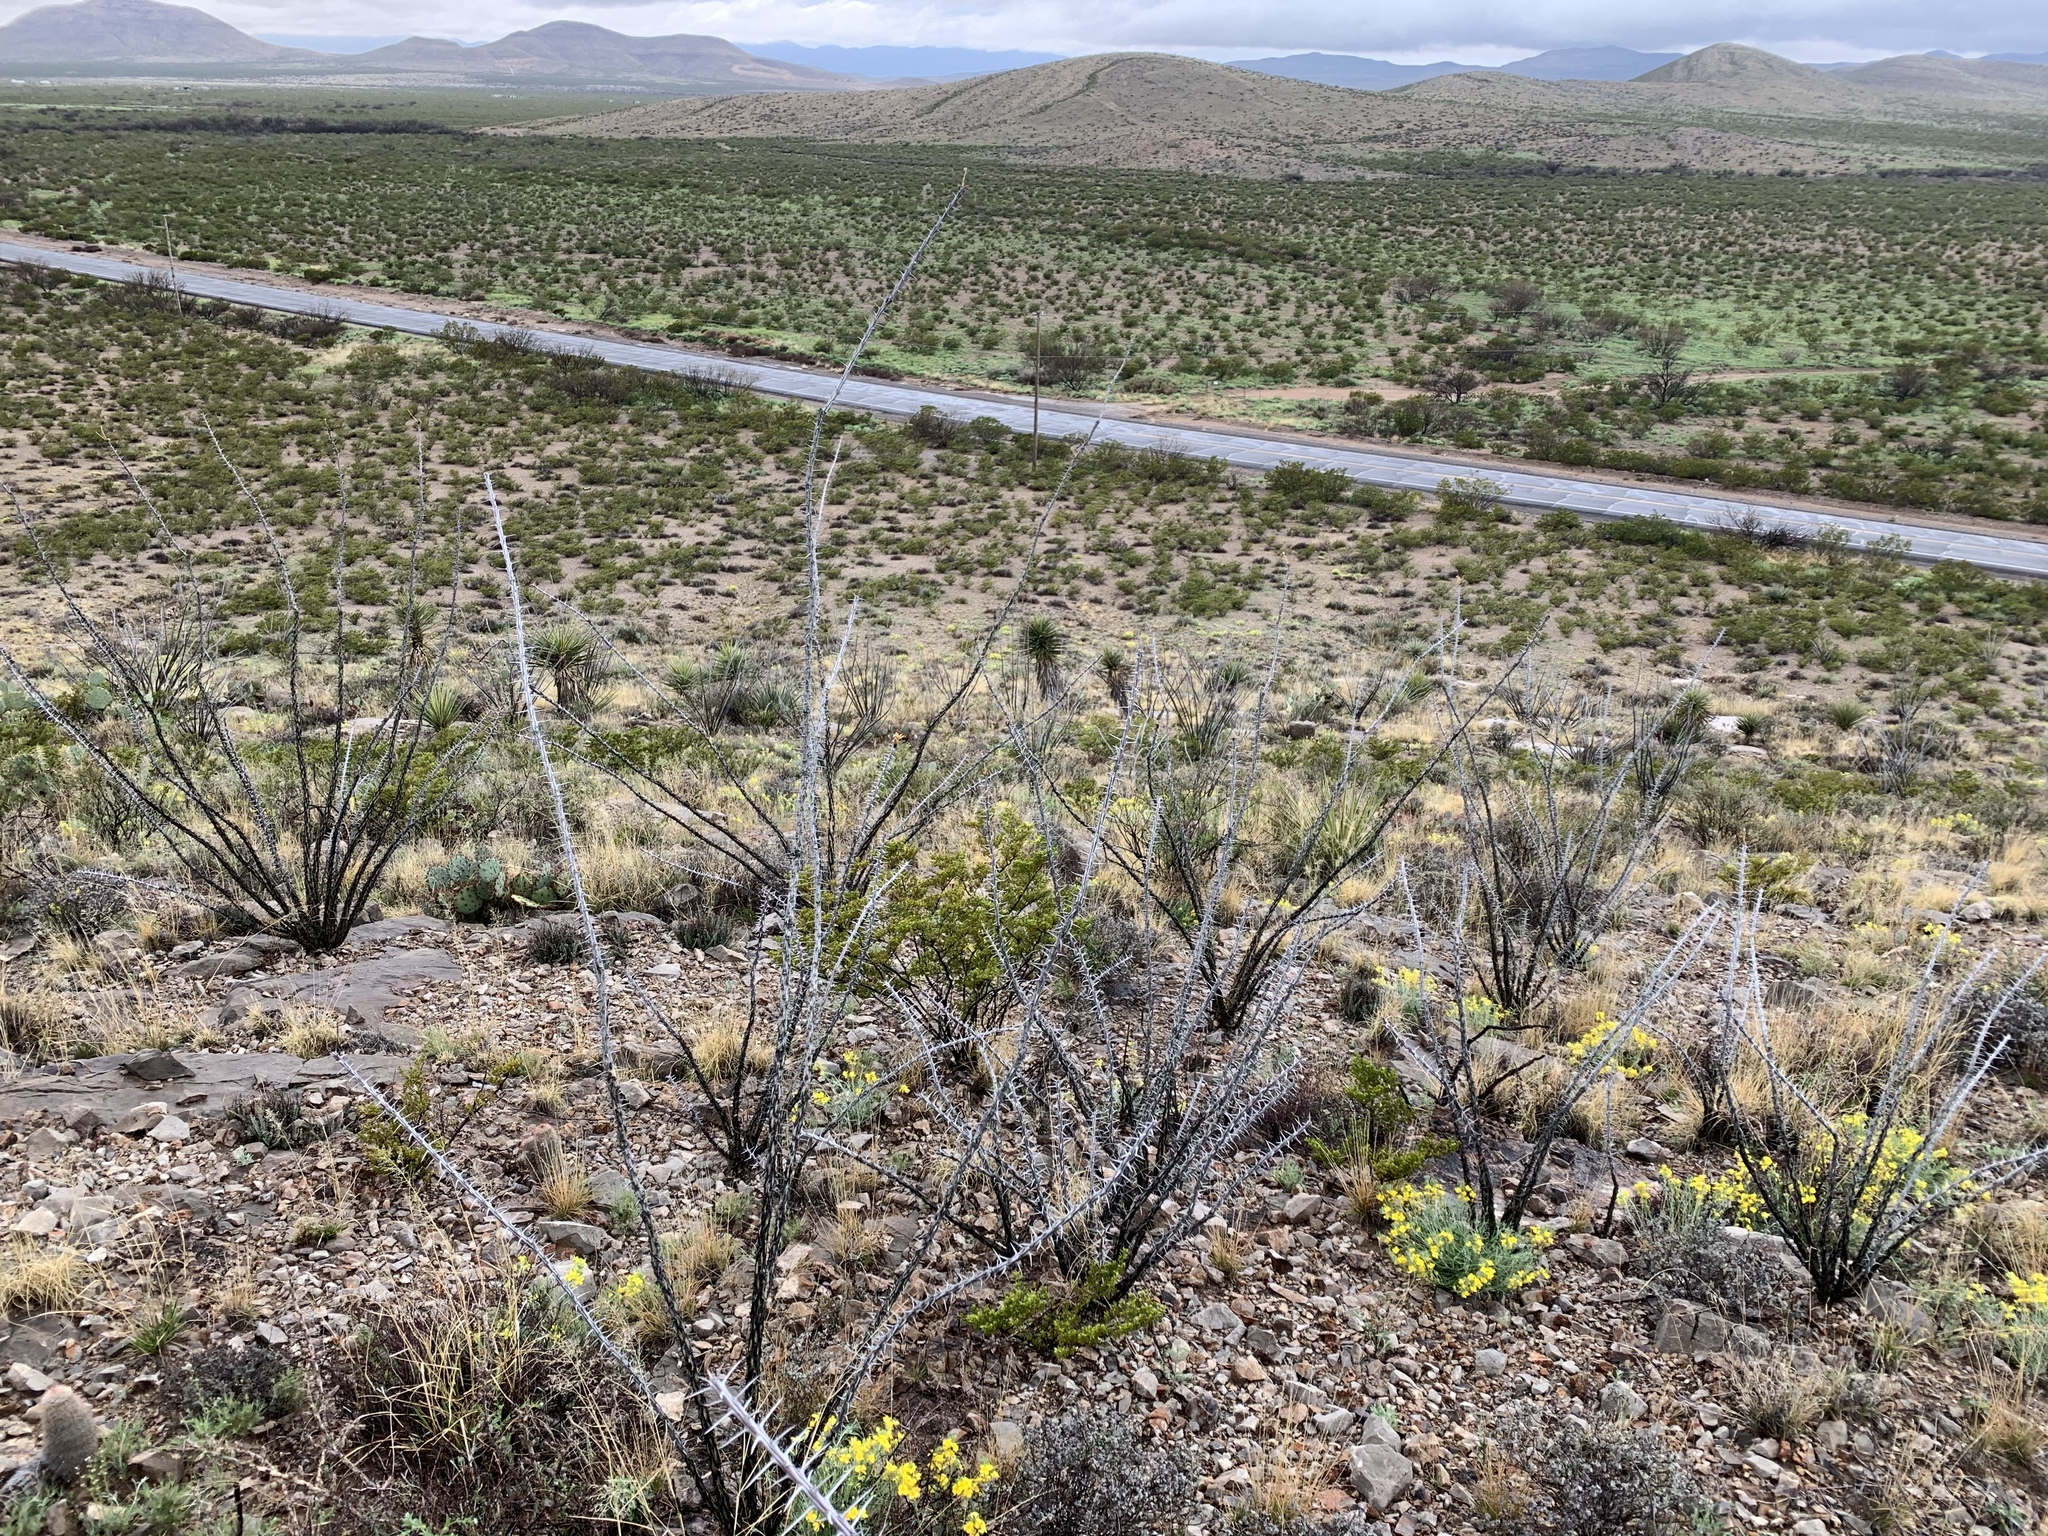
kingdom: Plantae
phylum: Tracheophyta
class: Magnoliopsida
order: Ericales
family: Fouquieriaceae
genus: Fouquieria
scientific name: Fouquieria splendens
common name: Vine-cactus
